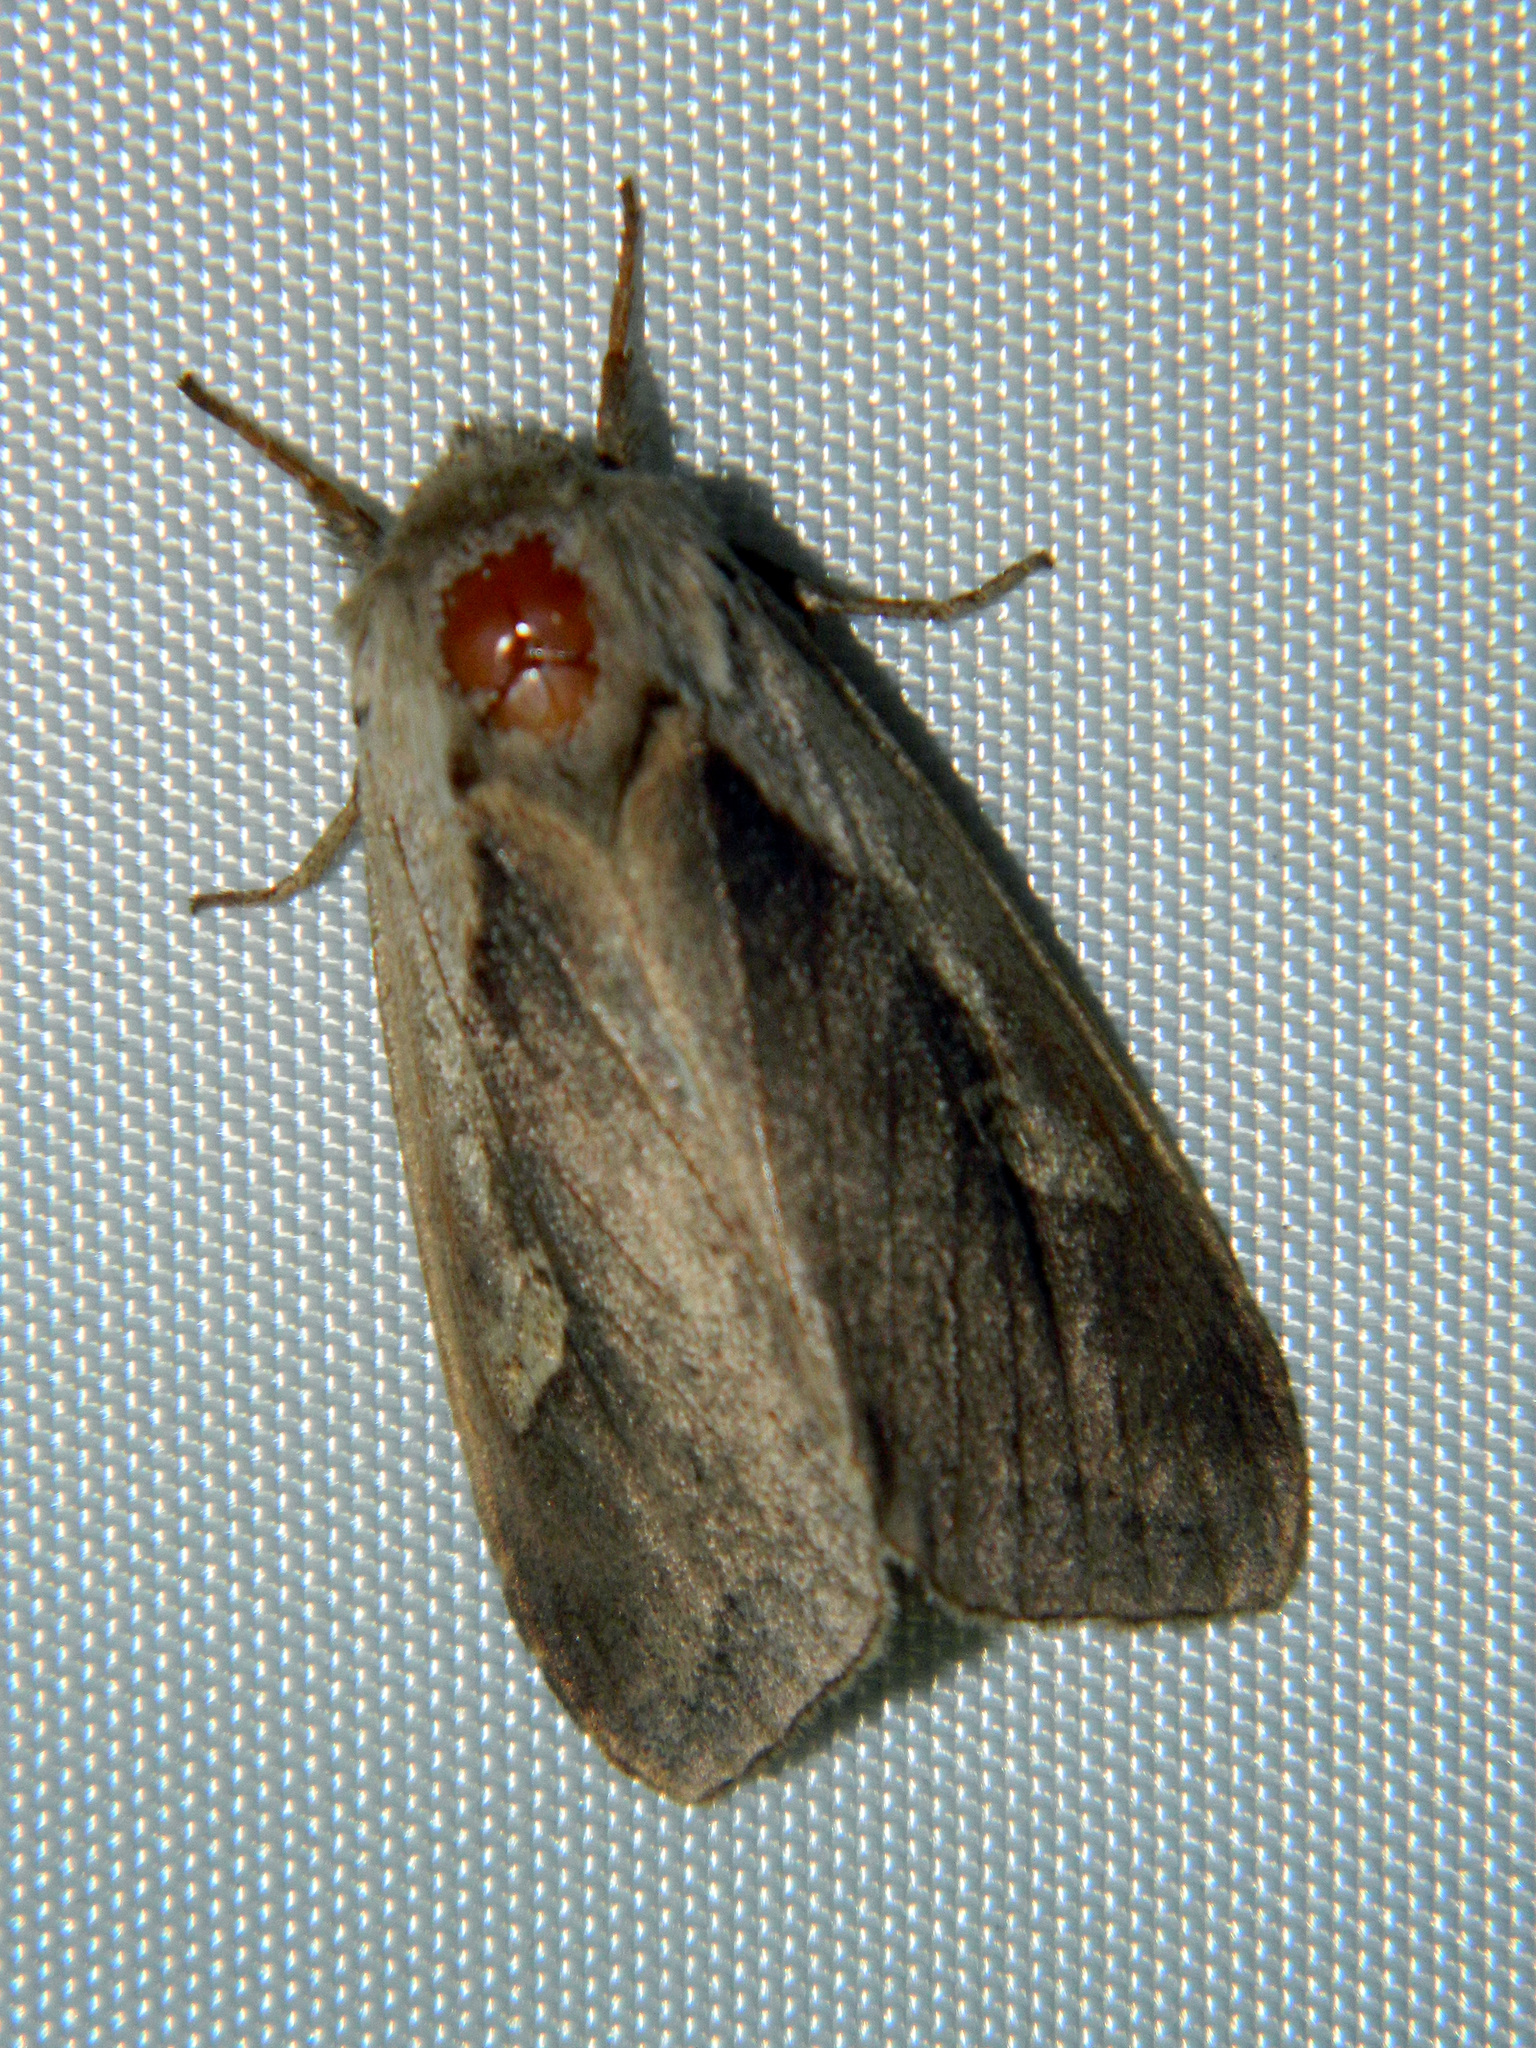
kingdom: Animalia
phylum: Arthropoda
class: Insecta
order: Lepidoptera
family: Noctuidae
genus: Bellura
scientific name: Bellura obliqua
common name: Cattail borer moth
